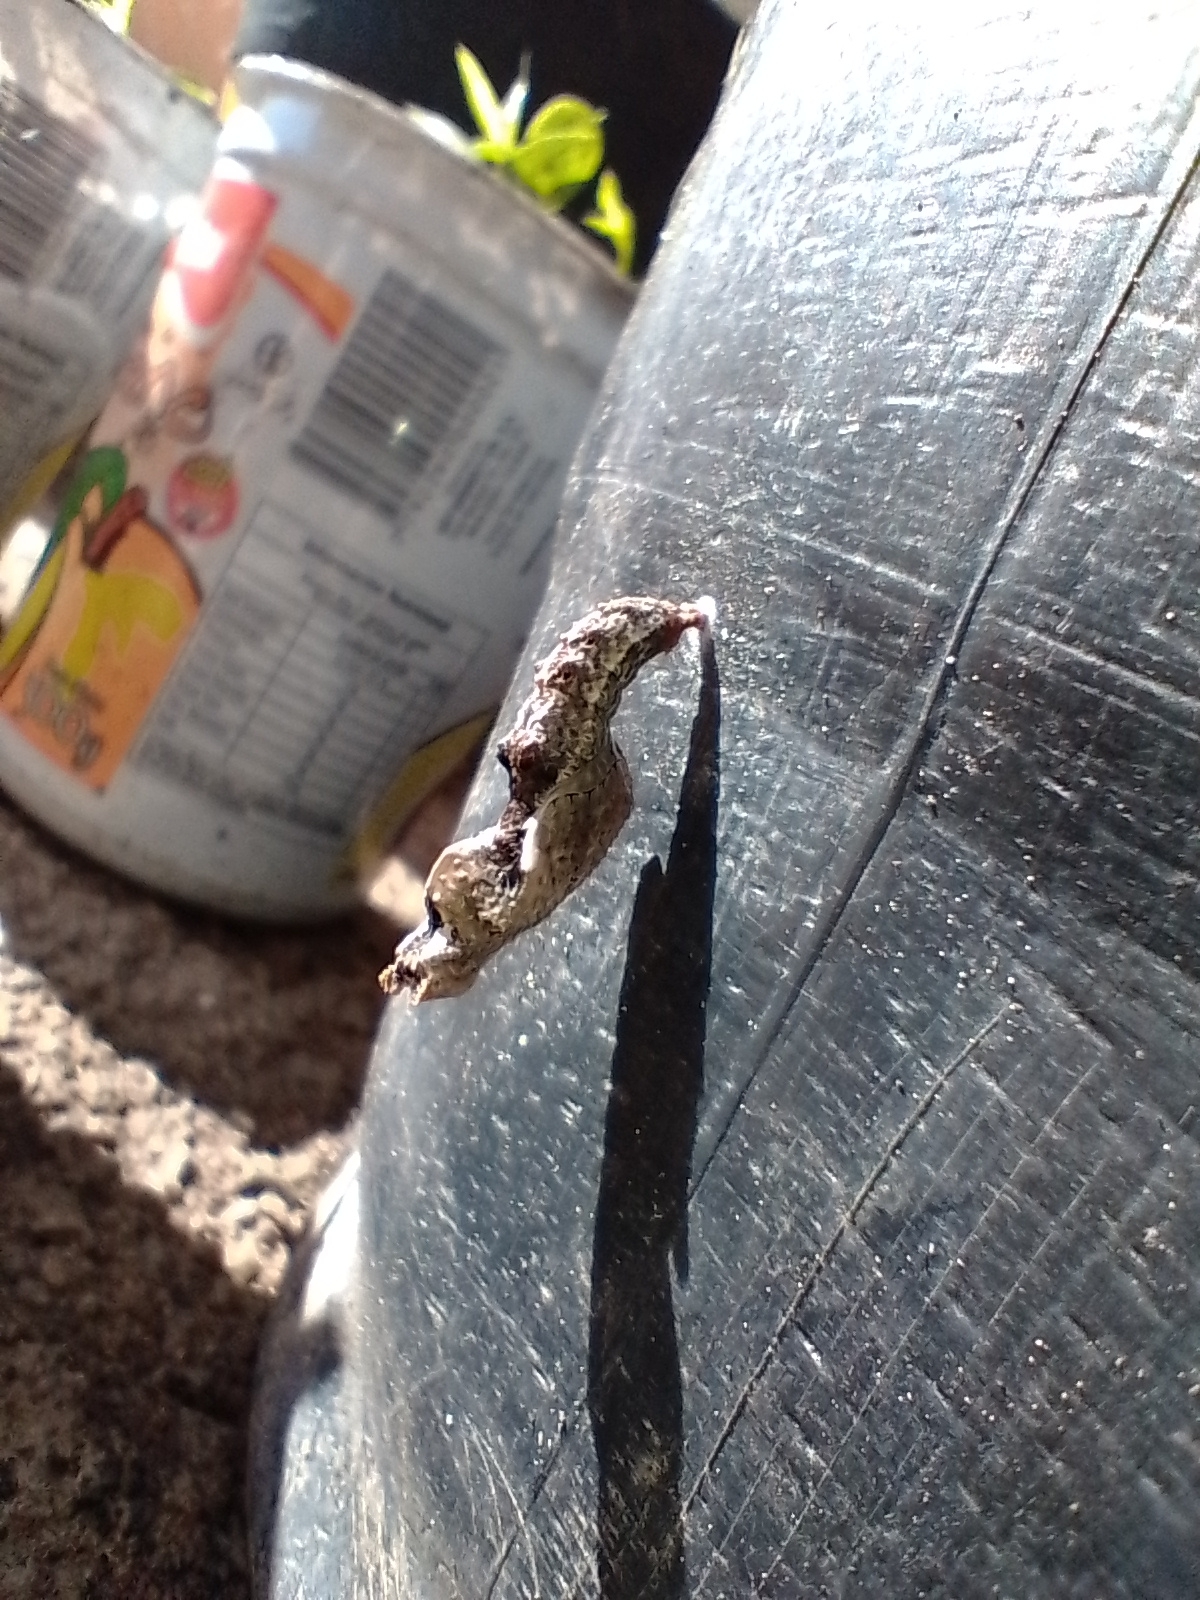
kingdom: Animalia
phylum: Arthropoda
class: Insecta
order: Lepidoptera
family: Nymphalidae
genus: Dione
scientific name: Dione vanillae
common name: Gulf fritillary
